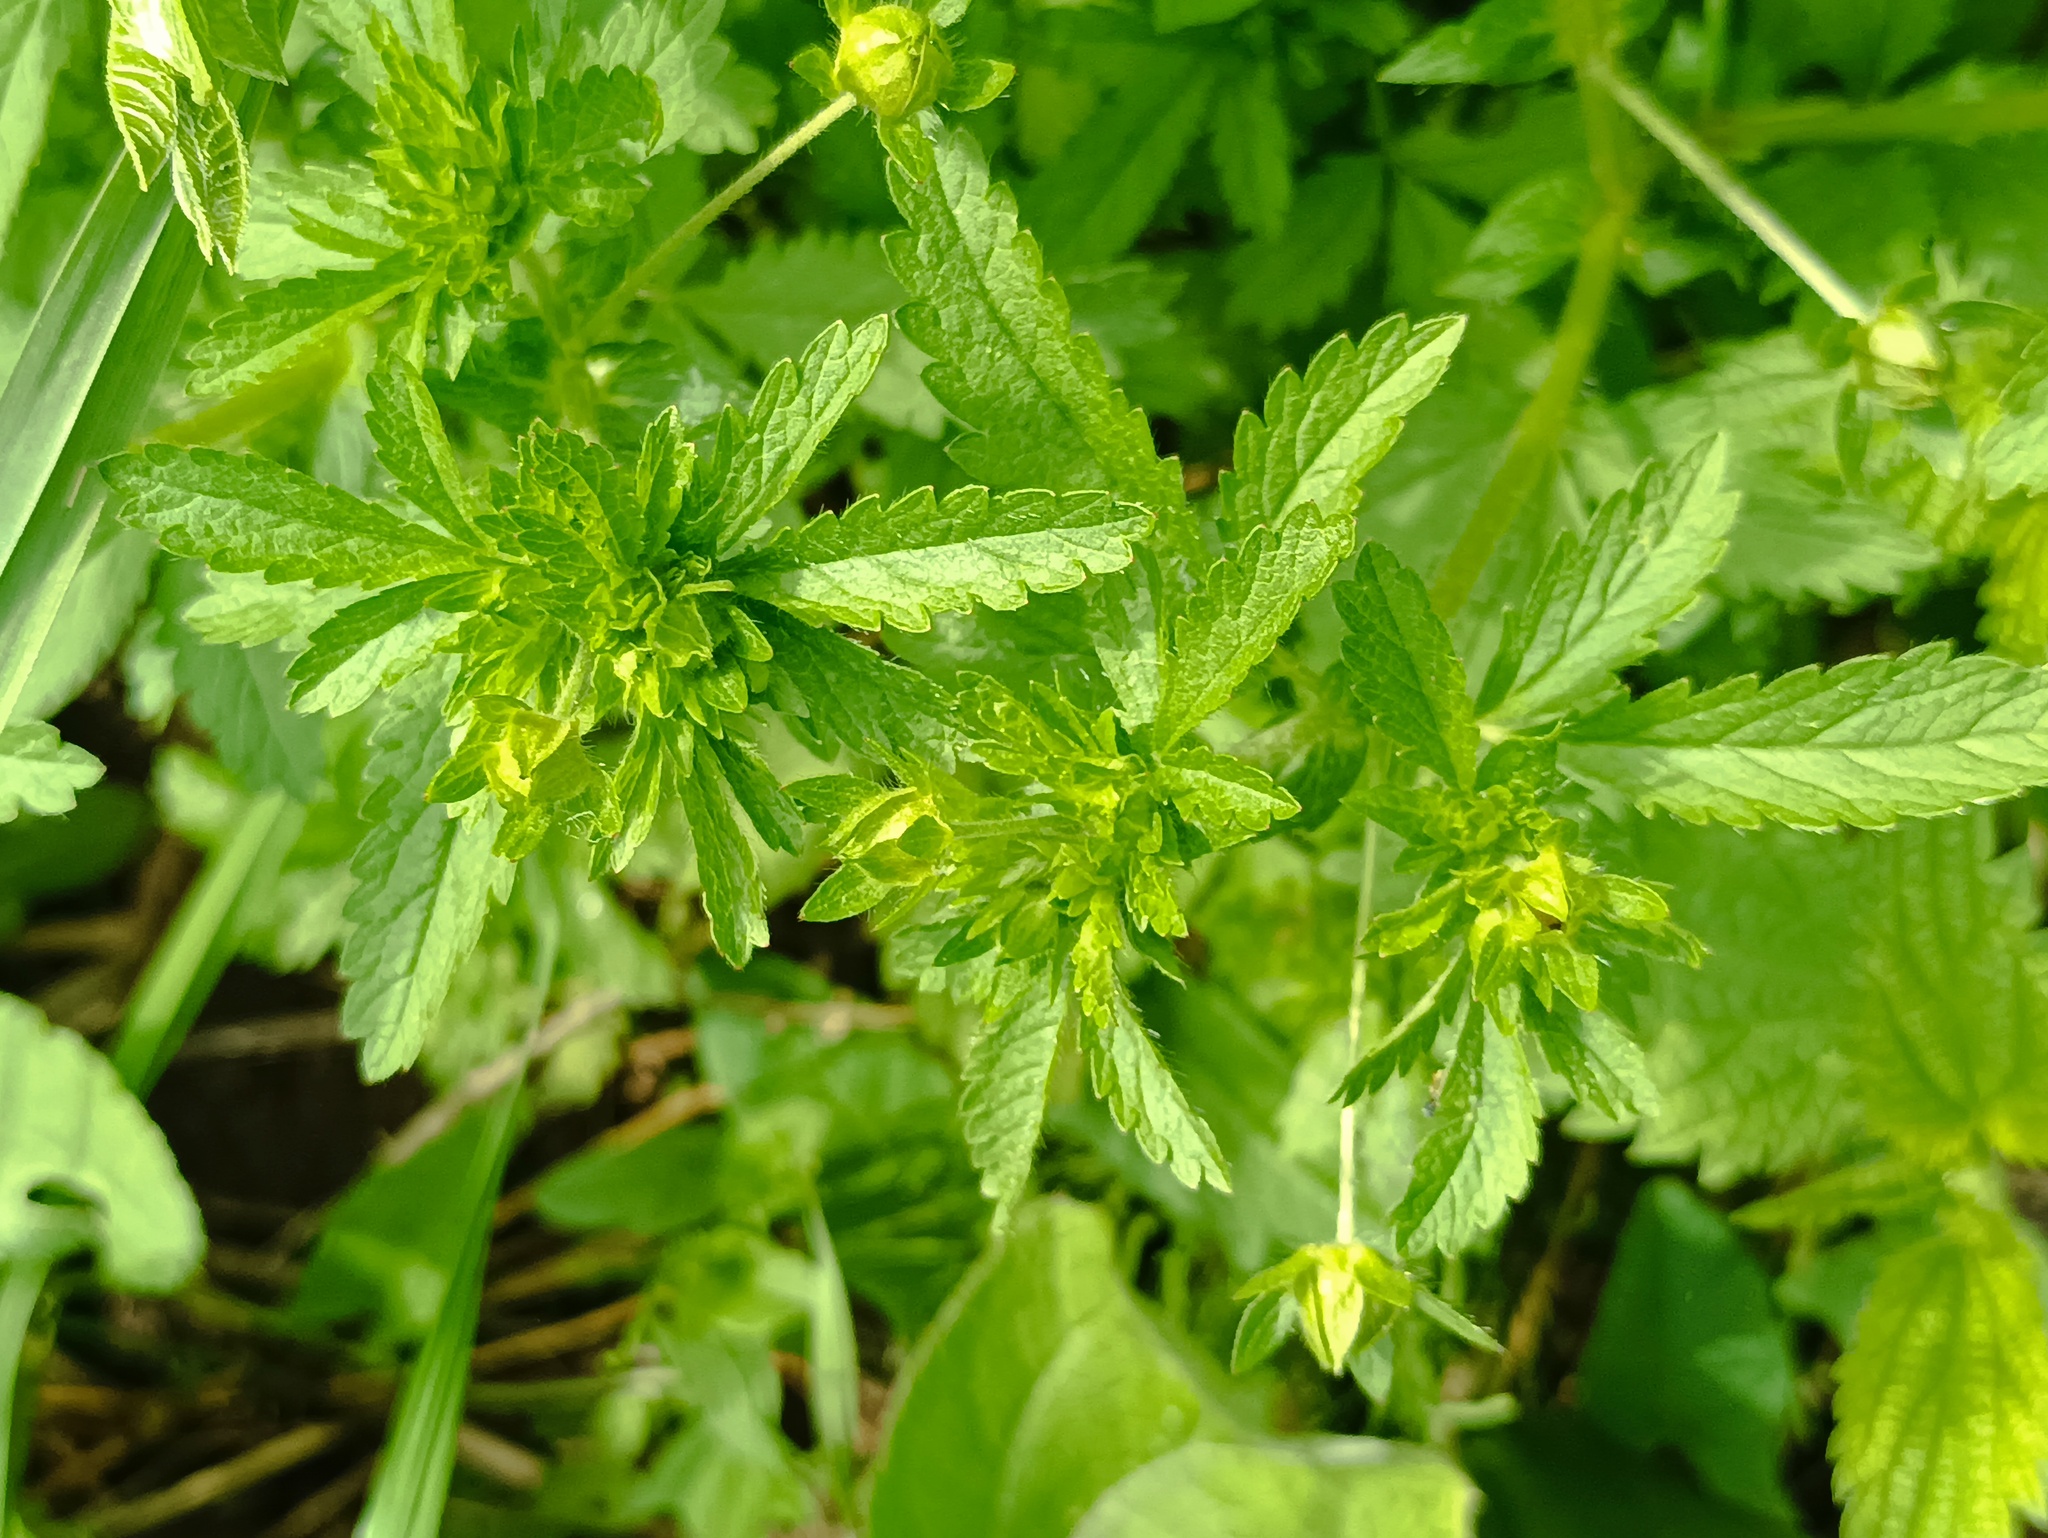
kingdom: Plantae
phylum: Tracheophyta
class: Magnoliopsida
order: Rosales
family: Rosaceae
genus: Potentilla
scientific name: Potentilla norvegica
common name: Ternate-leaved cinquefoil
